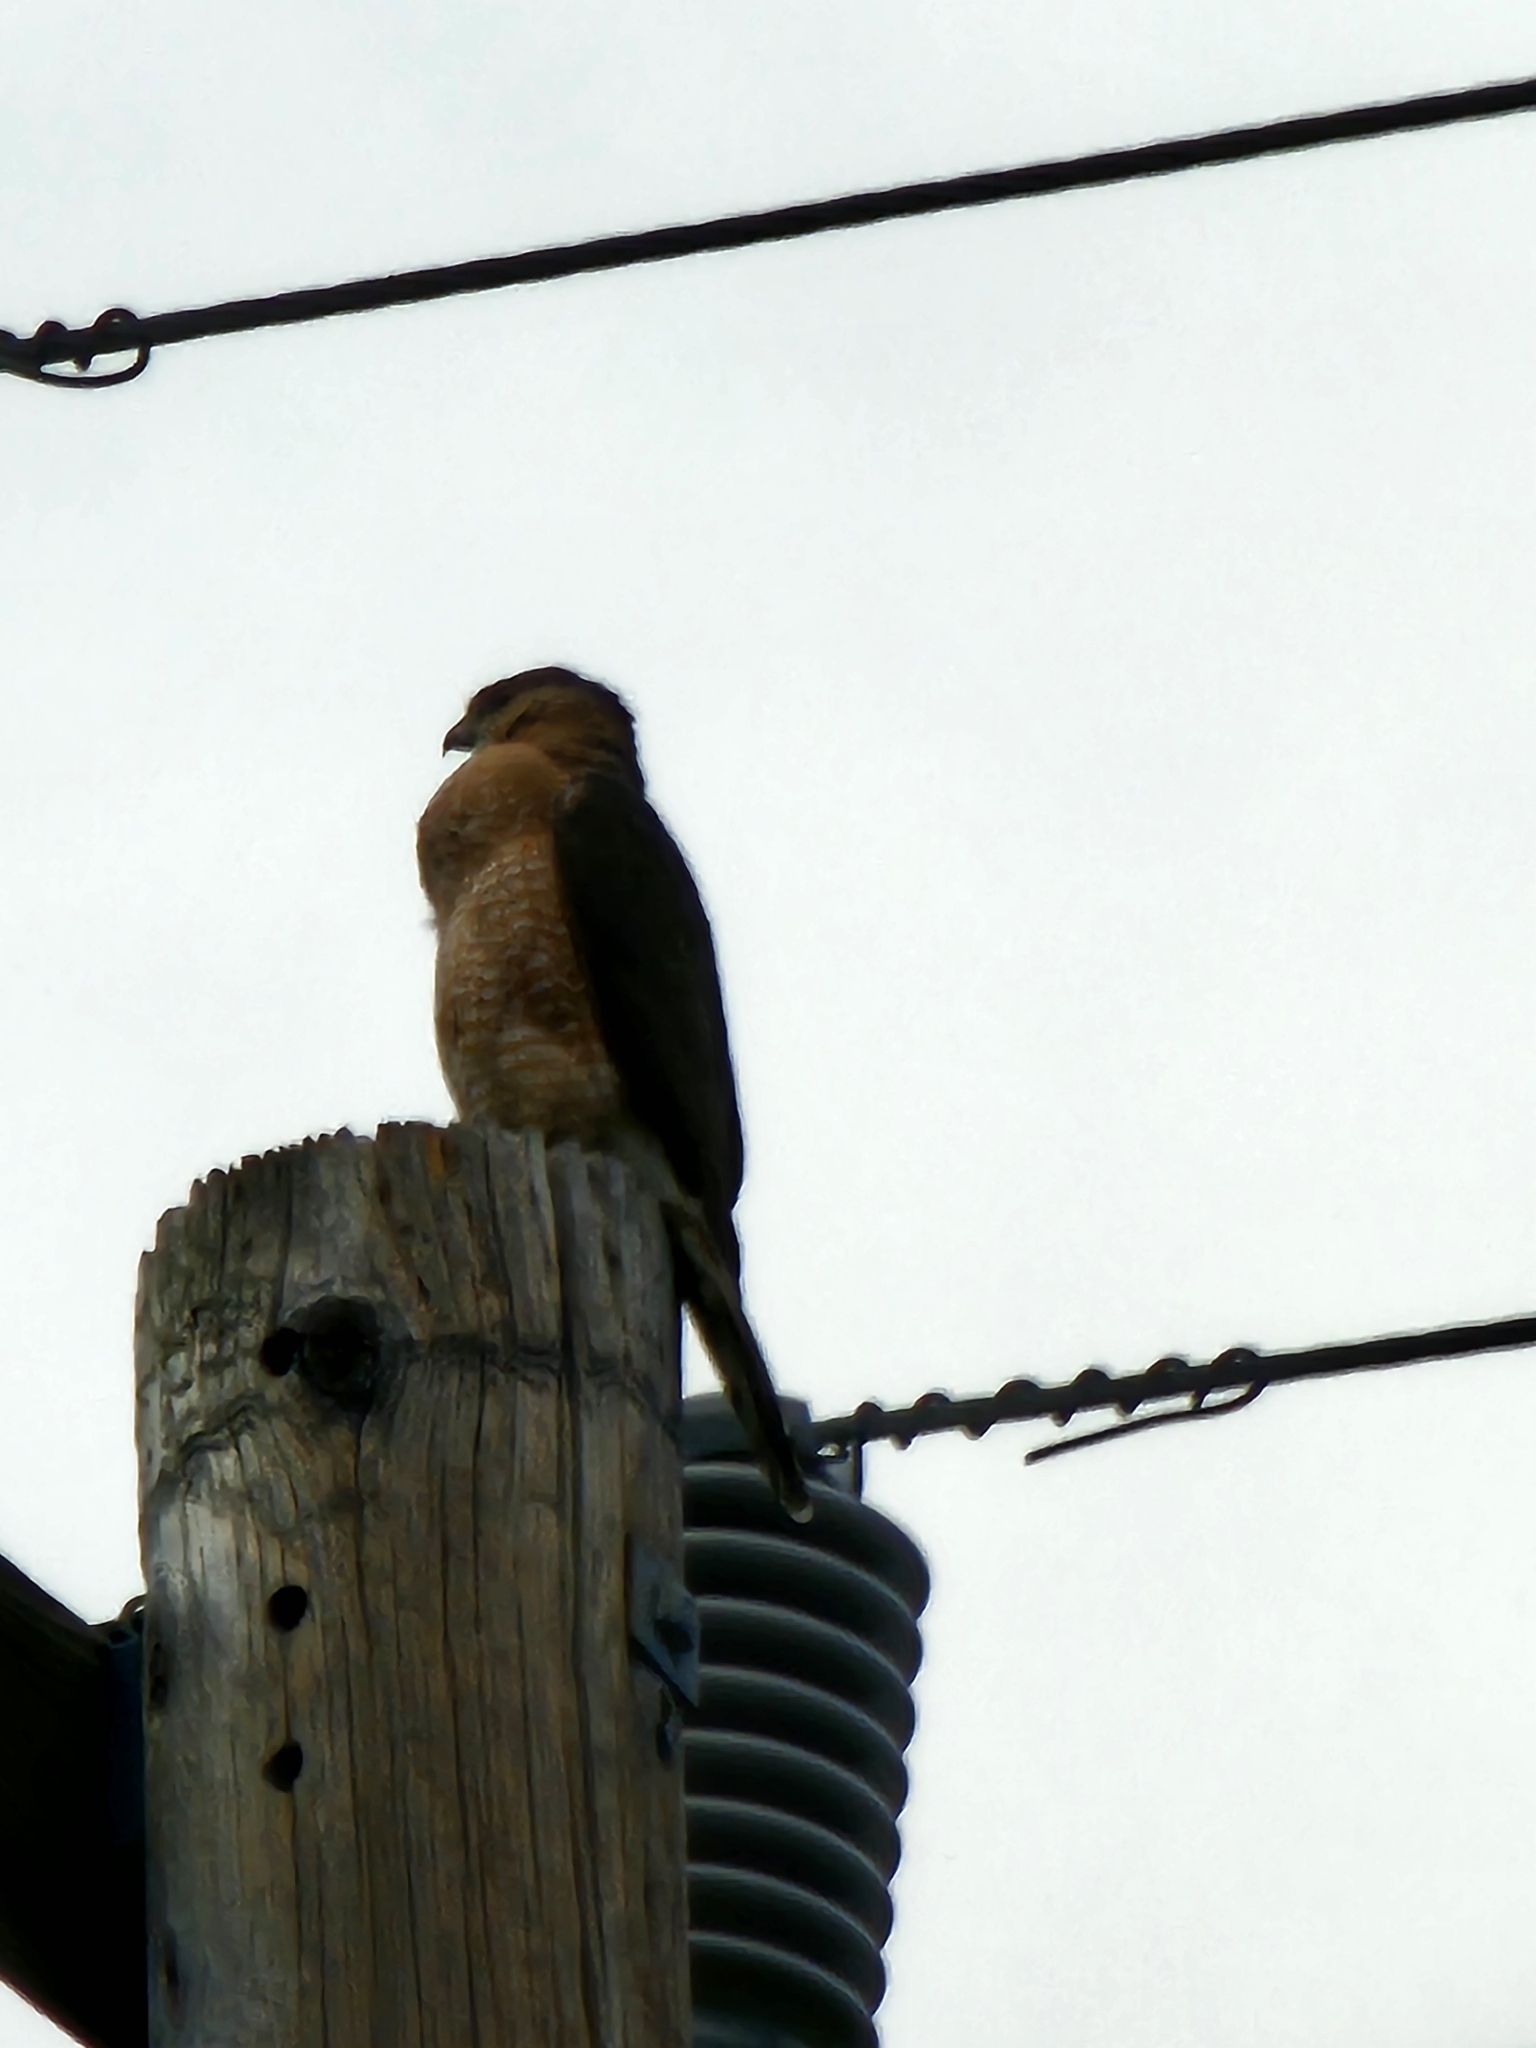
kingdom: Animalia
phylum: Chordata
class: Aves
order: Accipitriformes
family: Accipitridae
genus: Accipiter
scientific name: Accipiter cooperii
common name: Cooper's hawk
